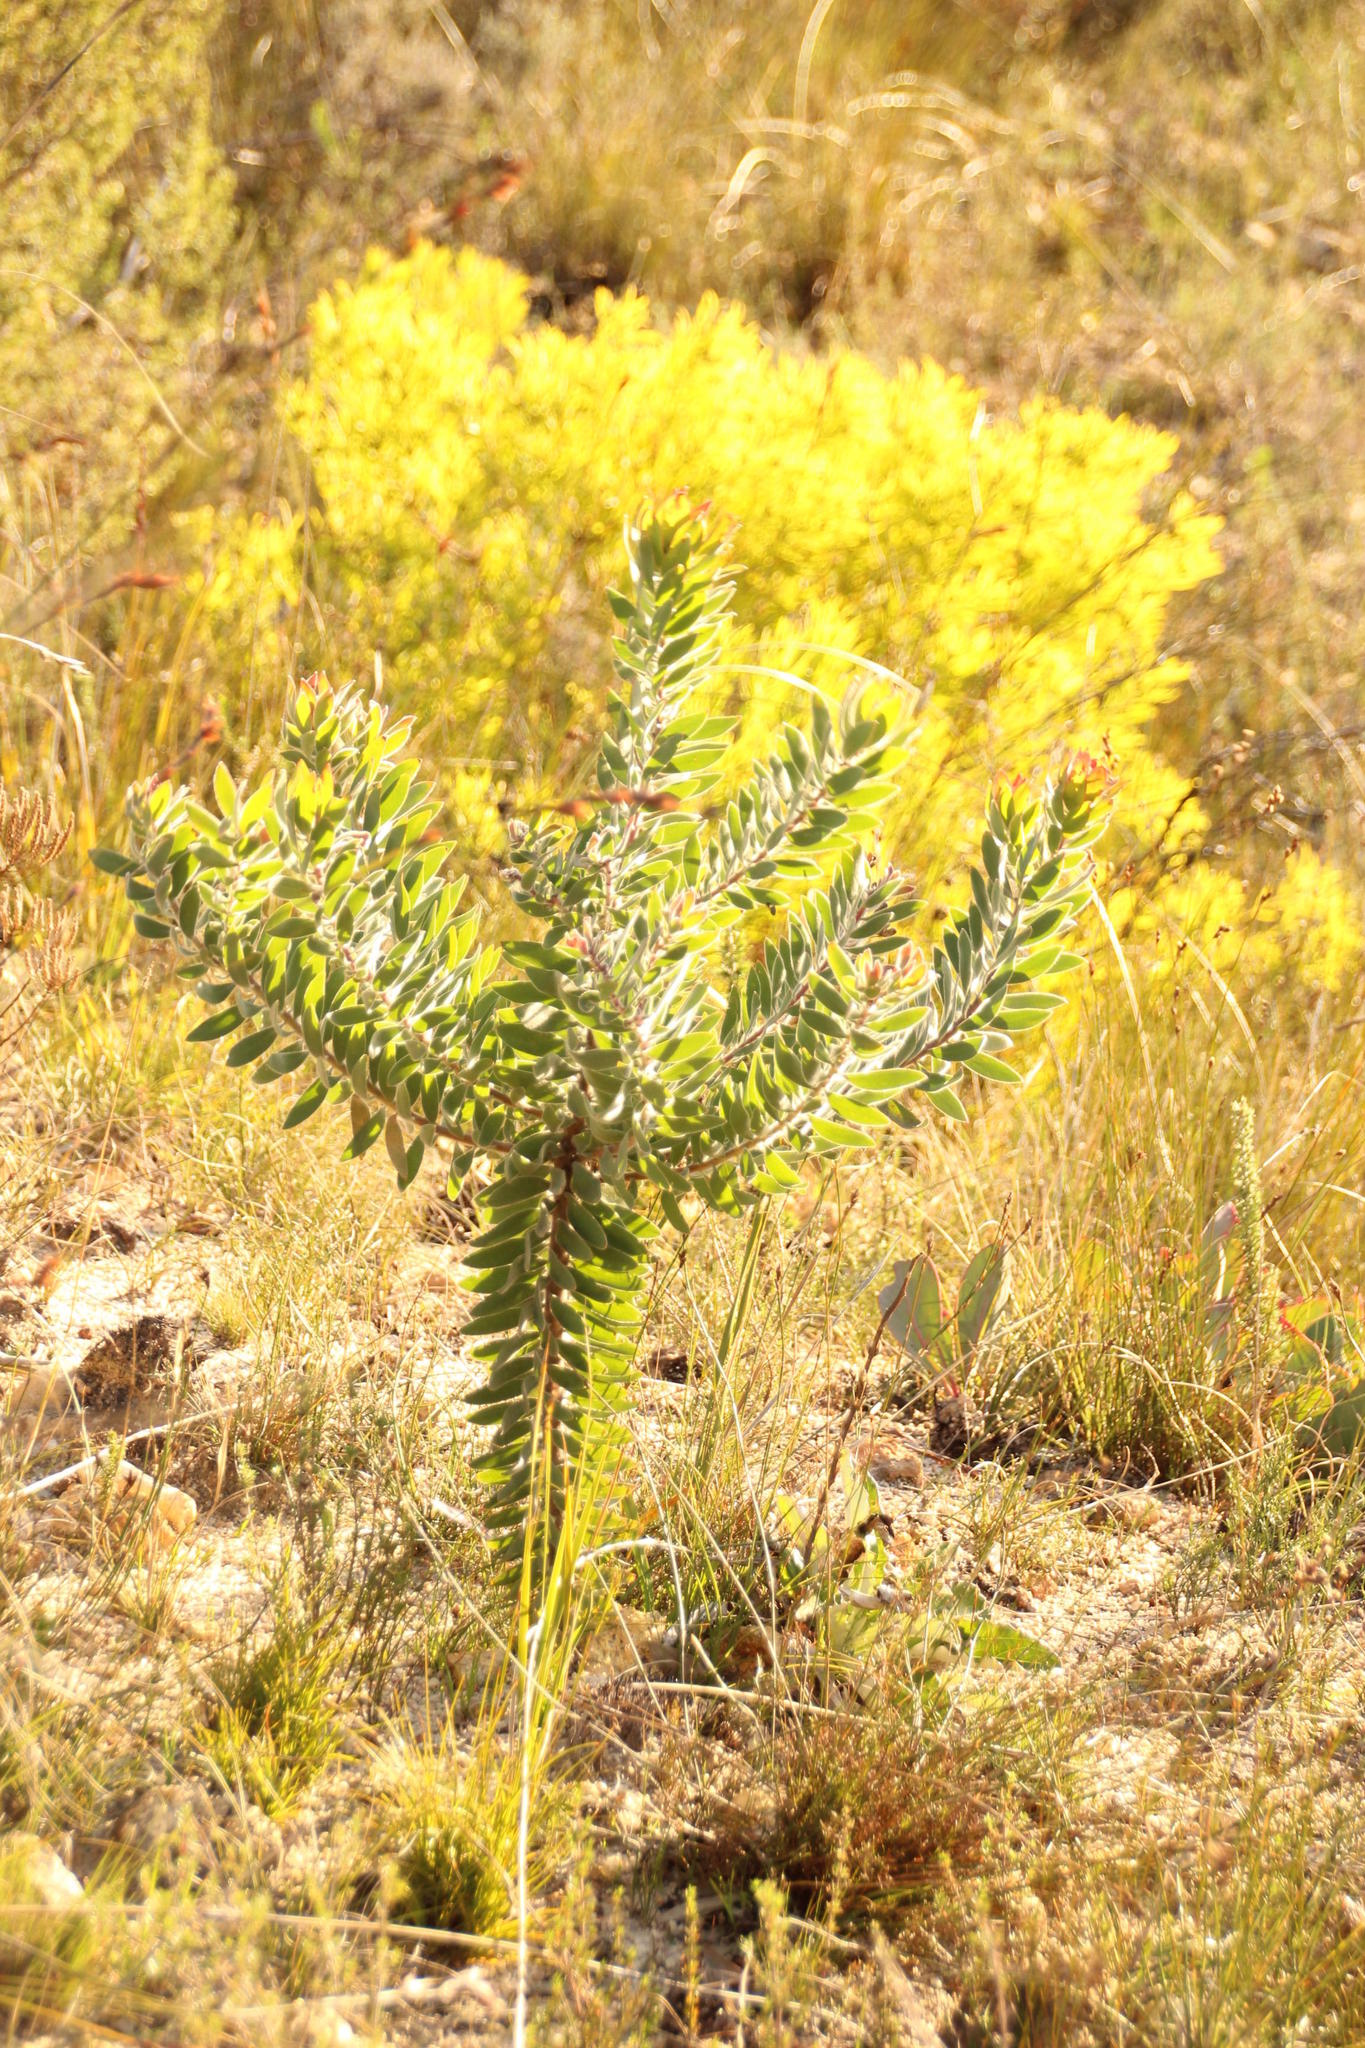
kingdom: Plantae
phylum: Tracheophyta
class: Magnoliopsida
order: Proteales
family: Proteaceae
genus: Leucadendron
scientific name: Leucadendron daphnoides
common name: Du toit's kloof conebush
